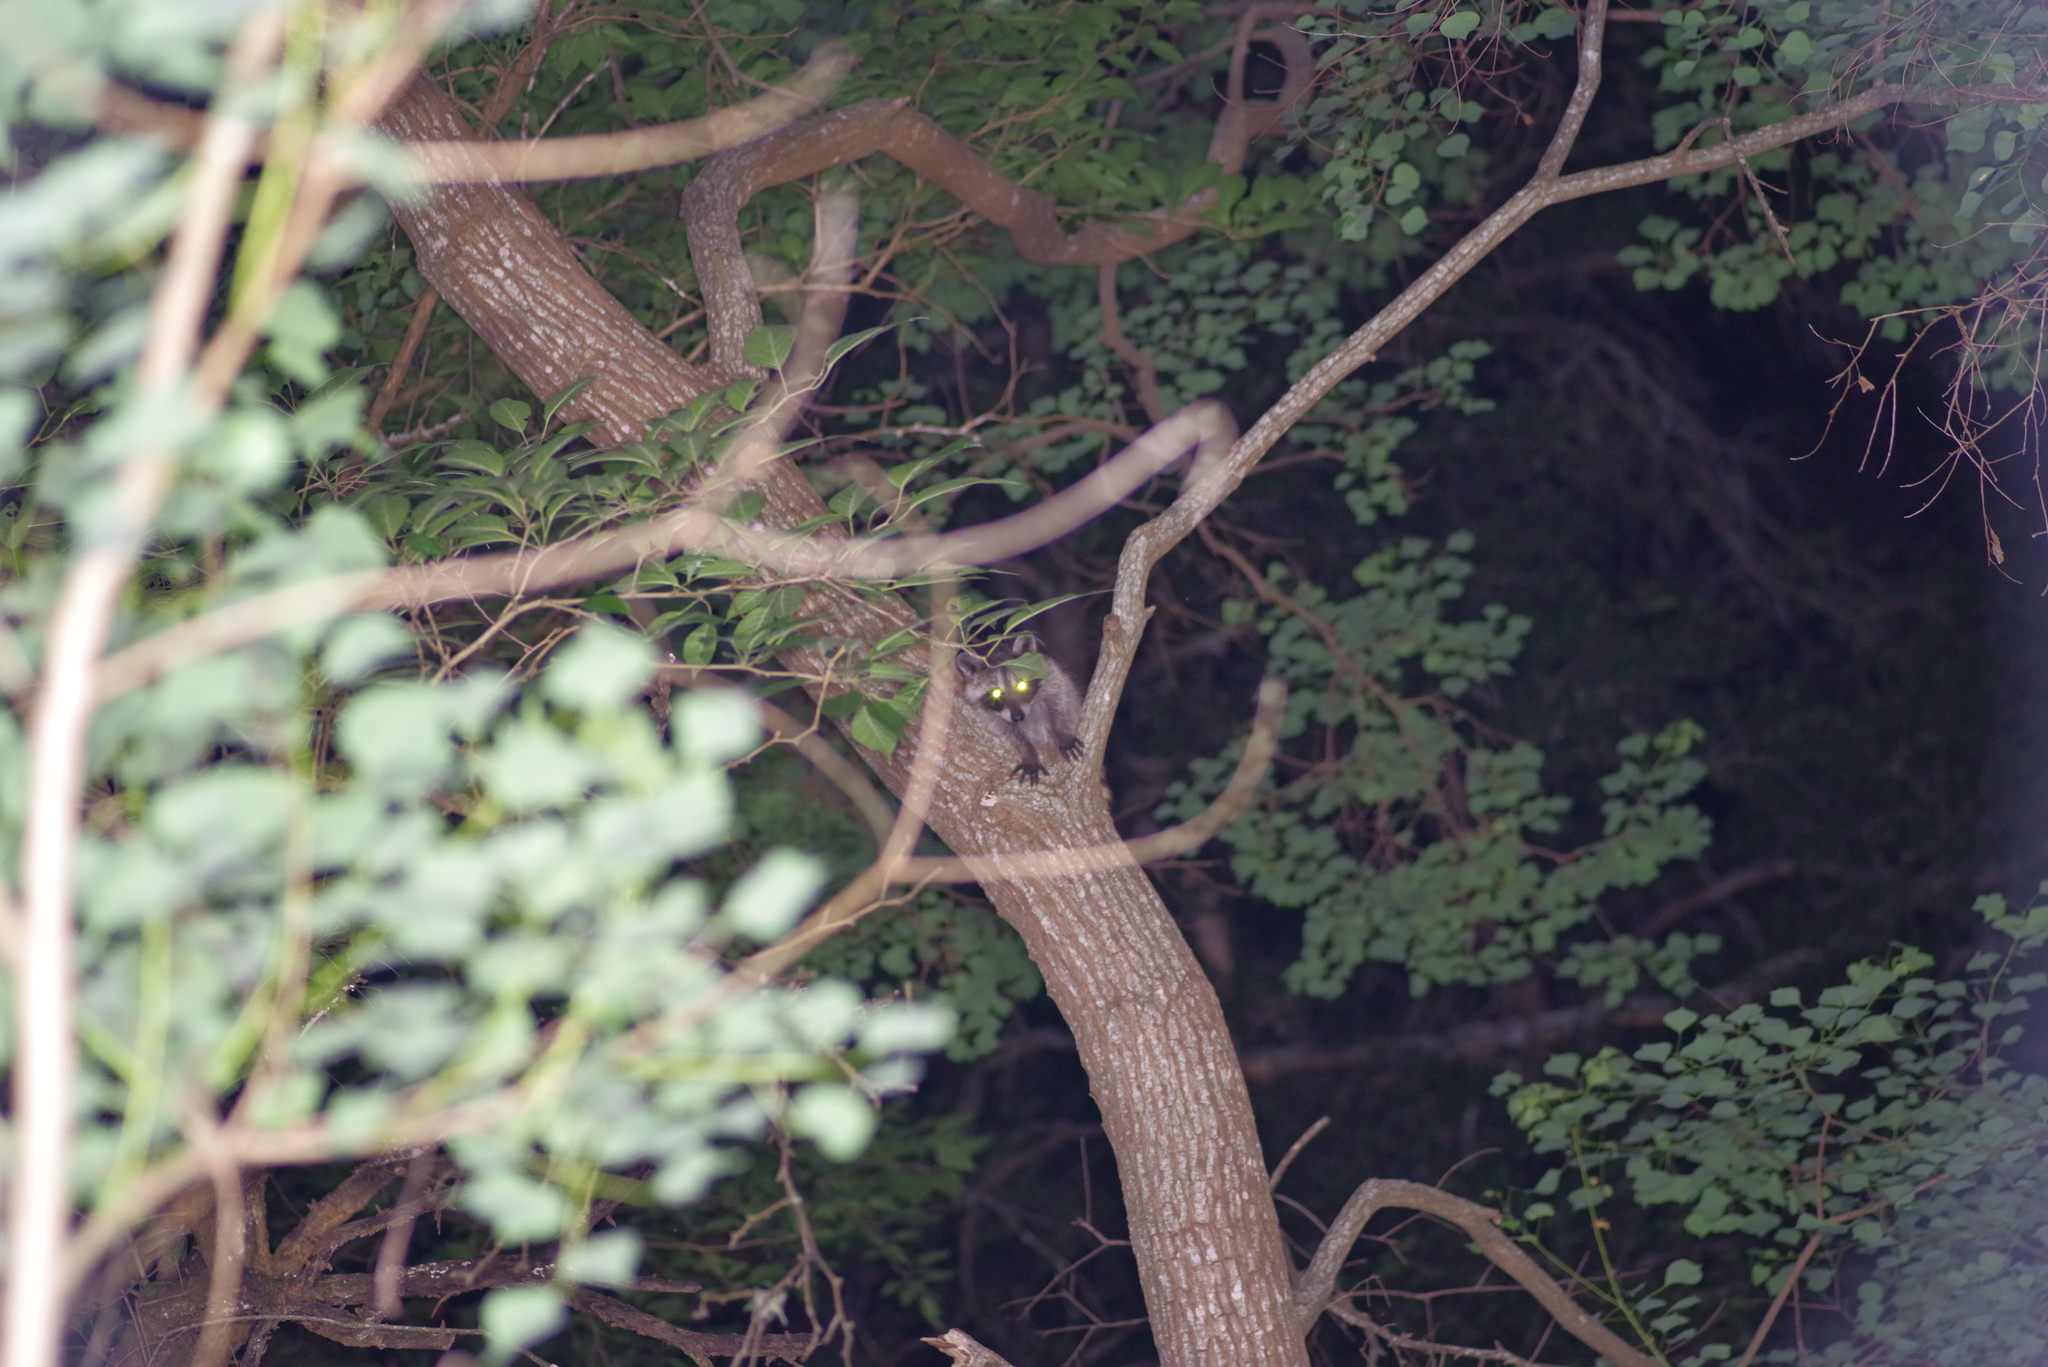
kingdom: Animalia
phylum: Chordata
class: Mammalia
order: Carnivora
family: Procyonidae
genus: Procyon
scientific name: Procyon lotor
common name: Raccoon
